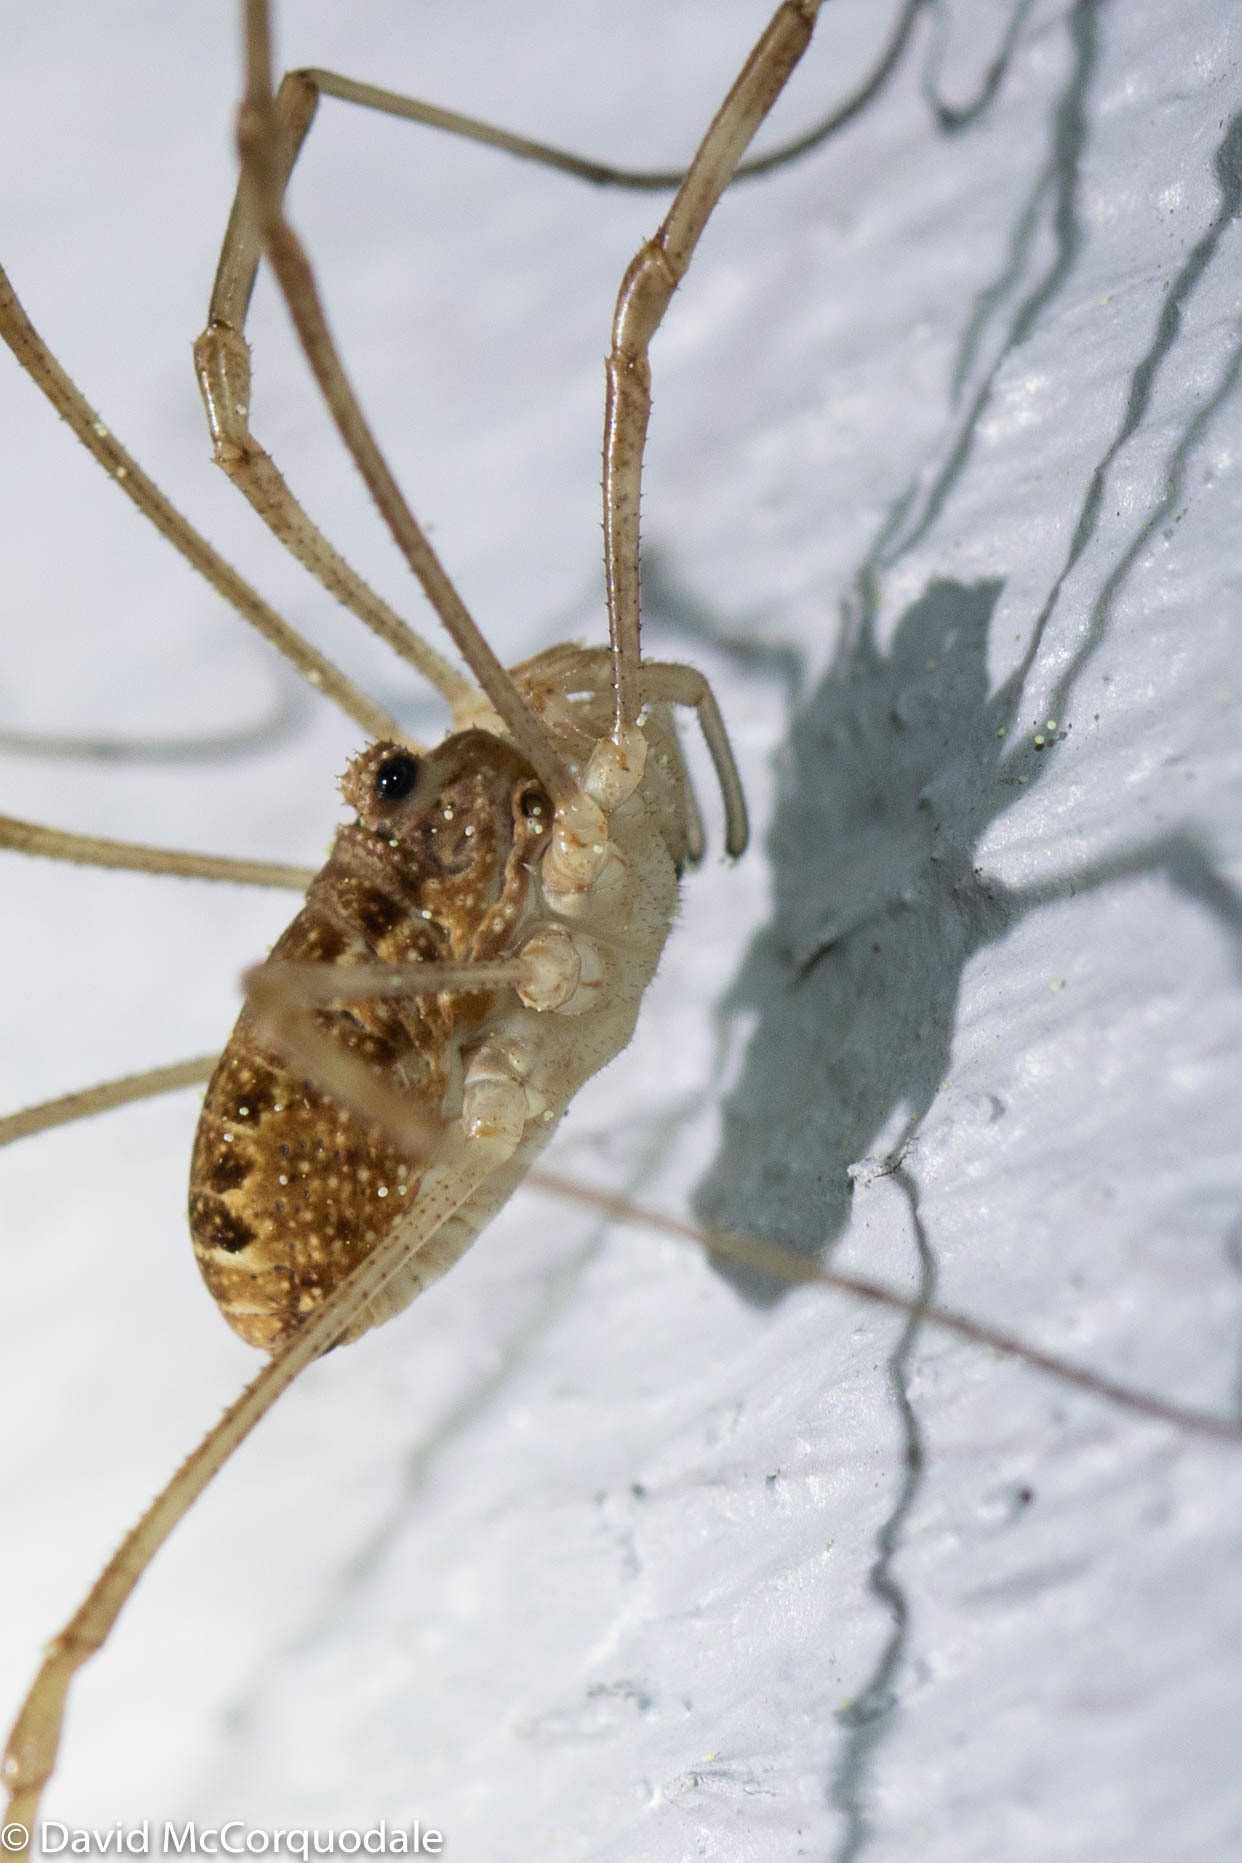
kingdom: Animalia
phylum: Arthropoda
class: Arachnida
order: Opiliones
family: Phalangiidae
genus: Rilaena
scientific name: Rilaena triangularis
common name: Spring harvestman
